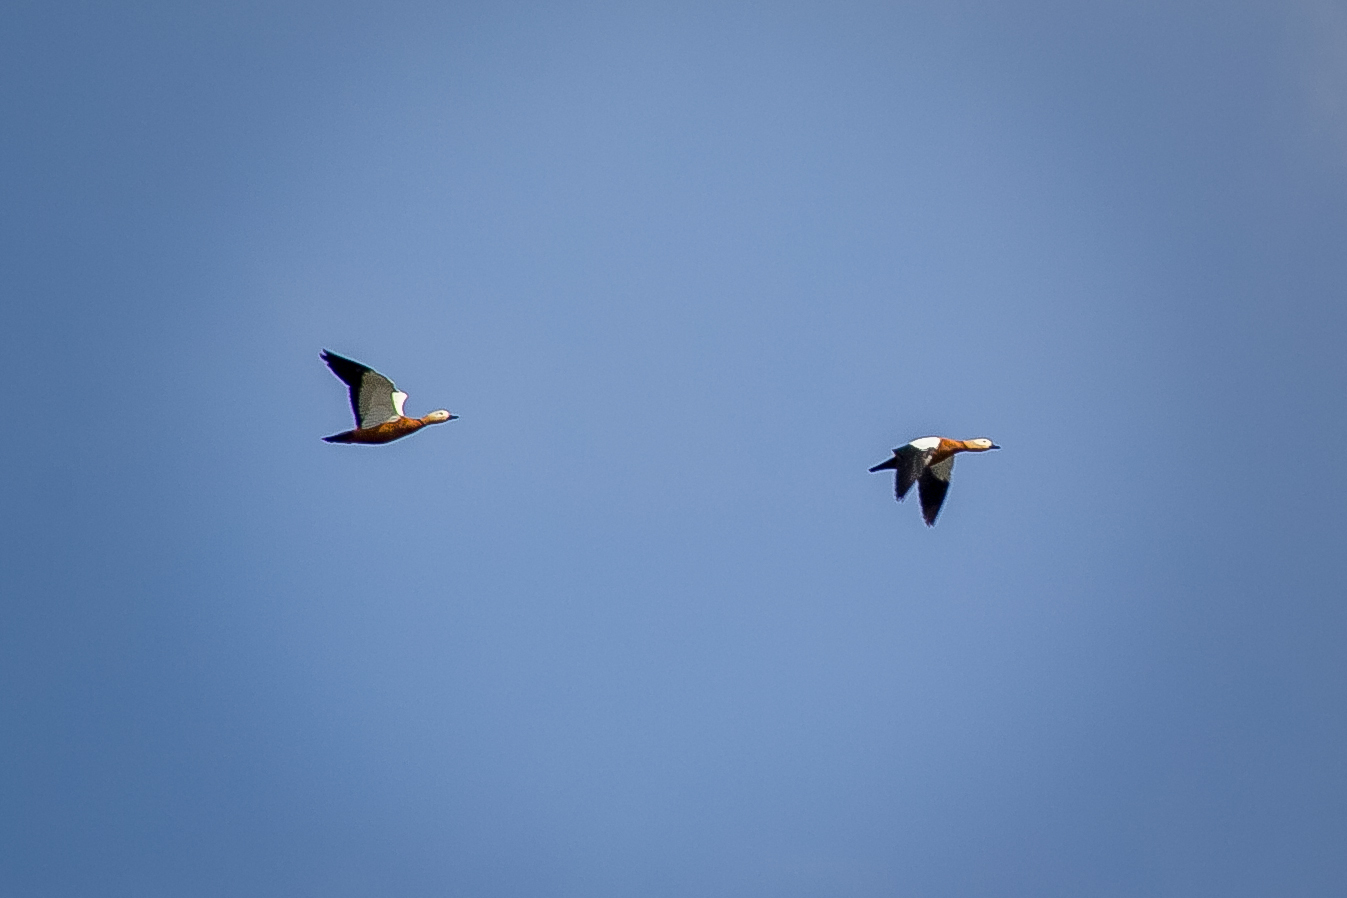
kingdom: Animalia
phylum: Chordata
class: Aves
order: Anseriformes
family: Anatidae
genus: Tadorna
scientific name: Tadorna ferruginea
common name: Ruddy shelduck
